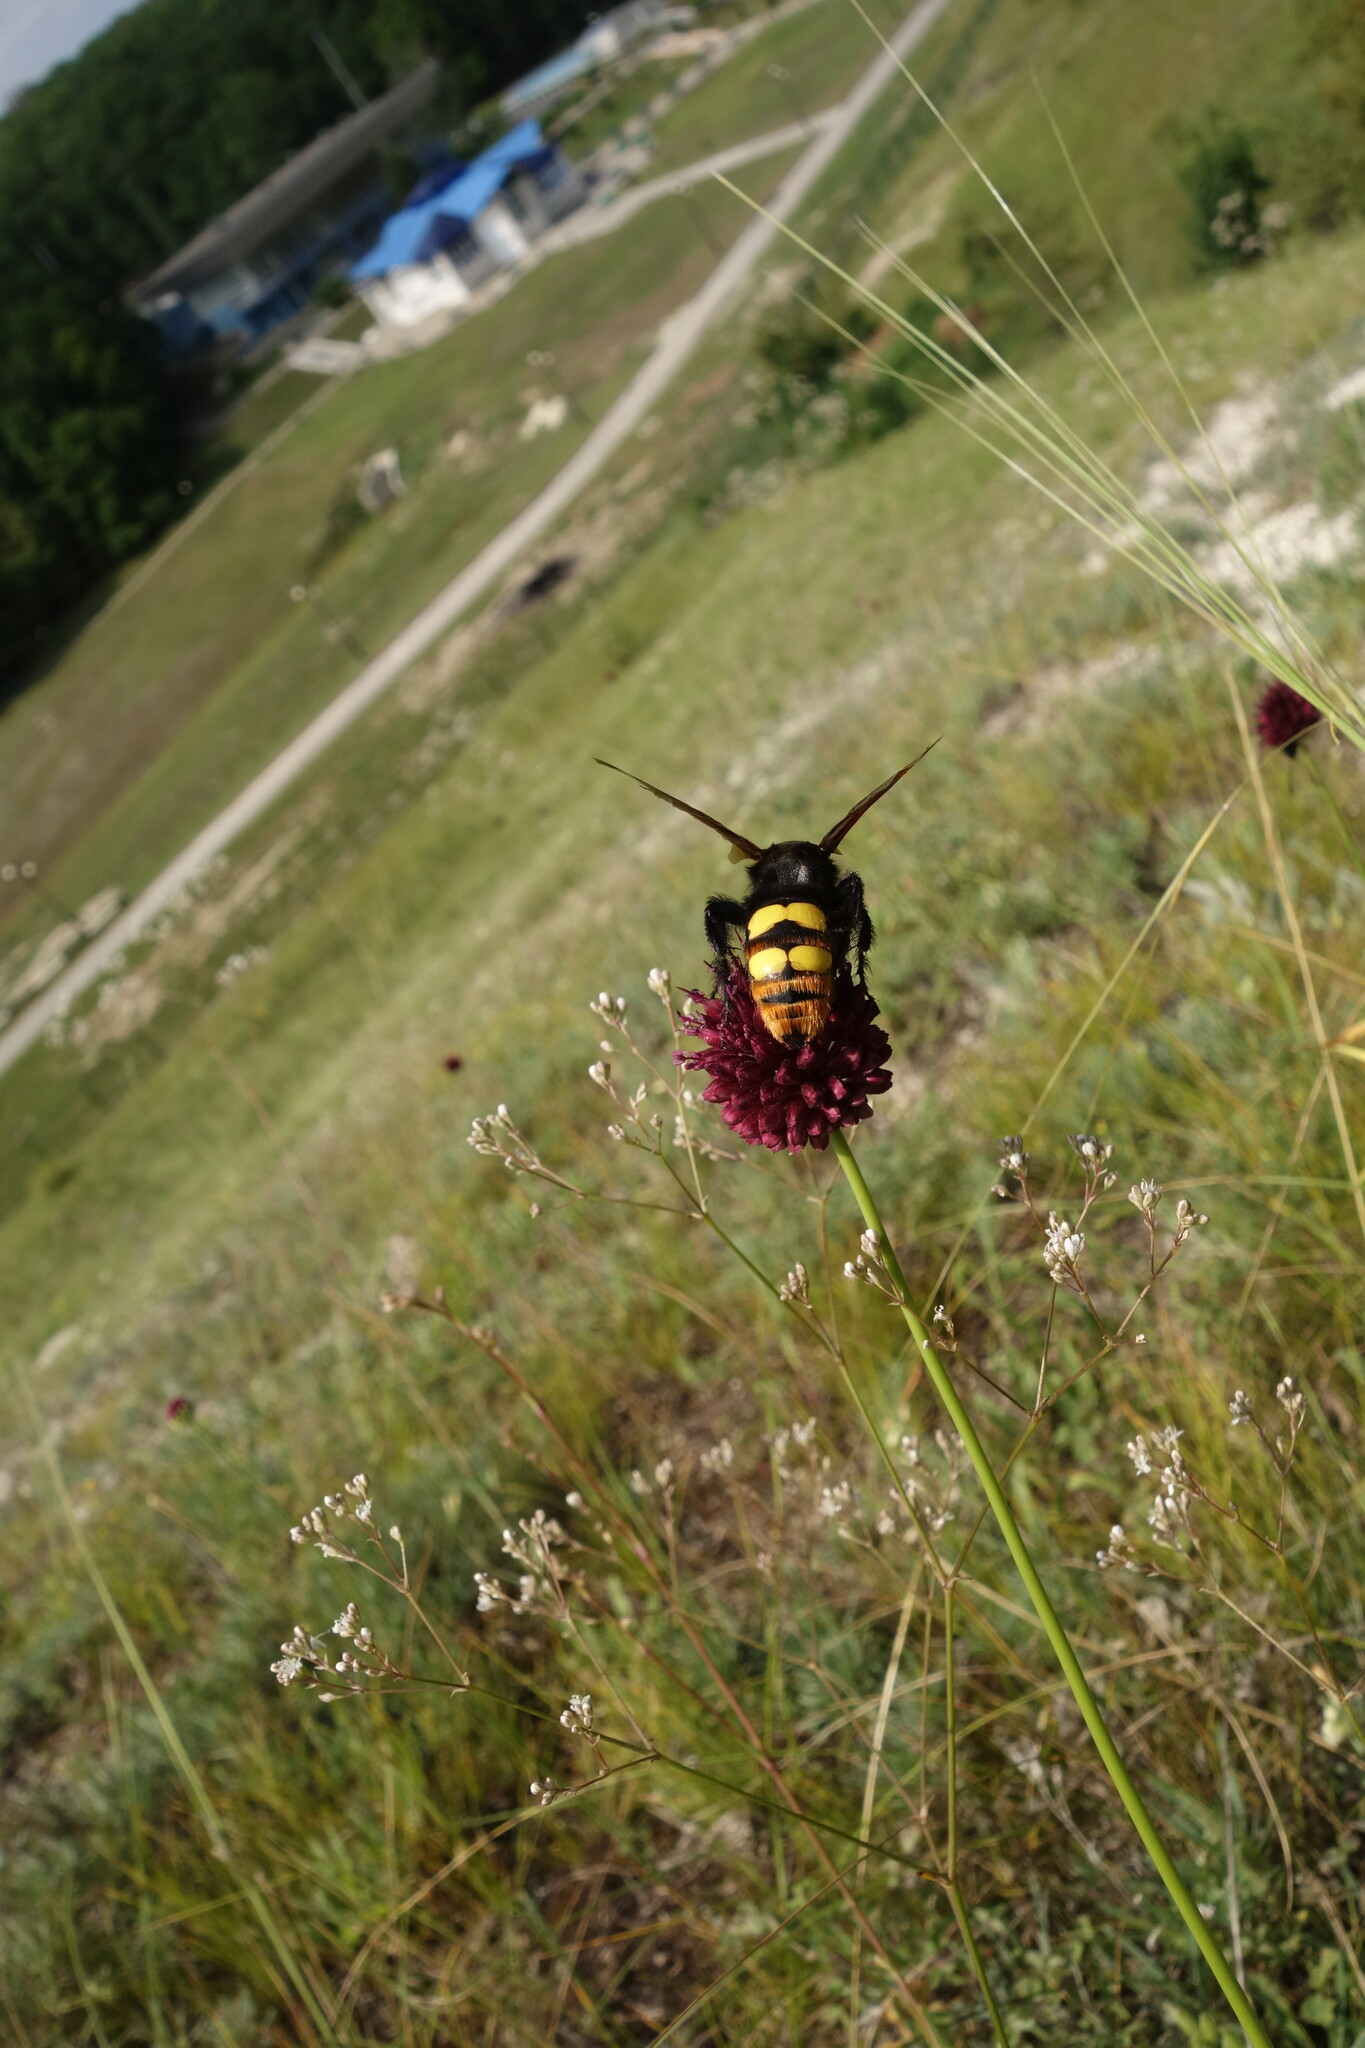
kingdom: Animalia
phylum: Arthropoda
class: Insecta
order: Hymenoptera
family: Scoliidae
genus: Megascolia
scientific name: Megascolia maculata
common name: Mammoth wasp
